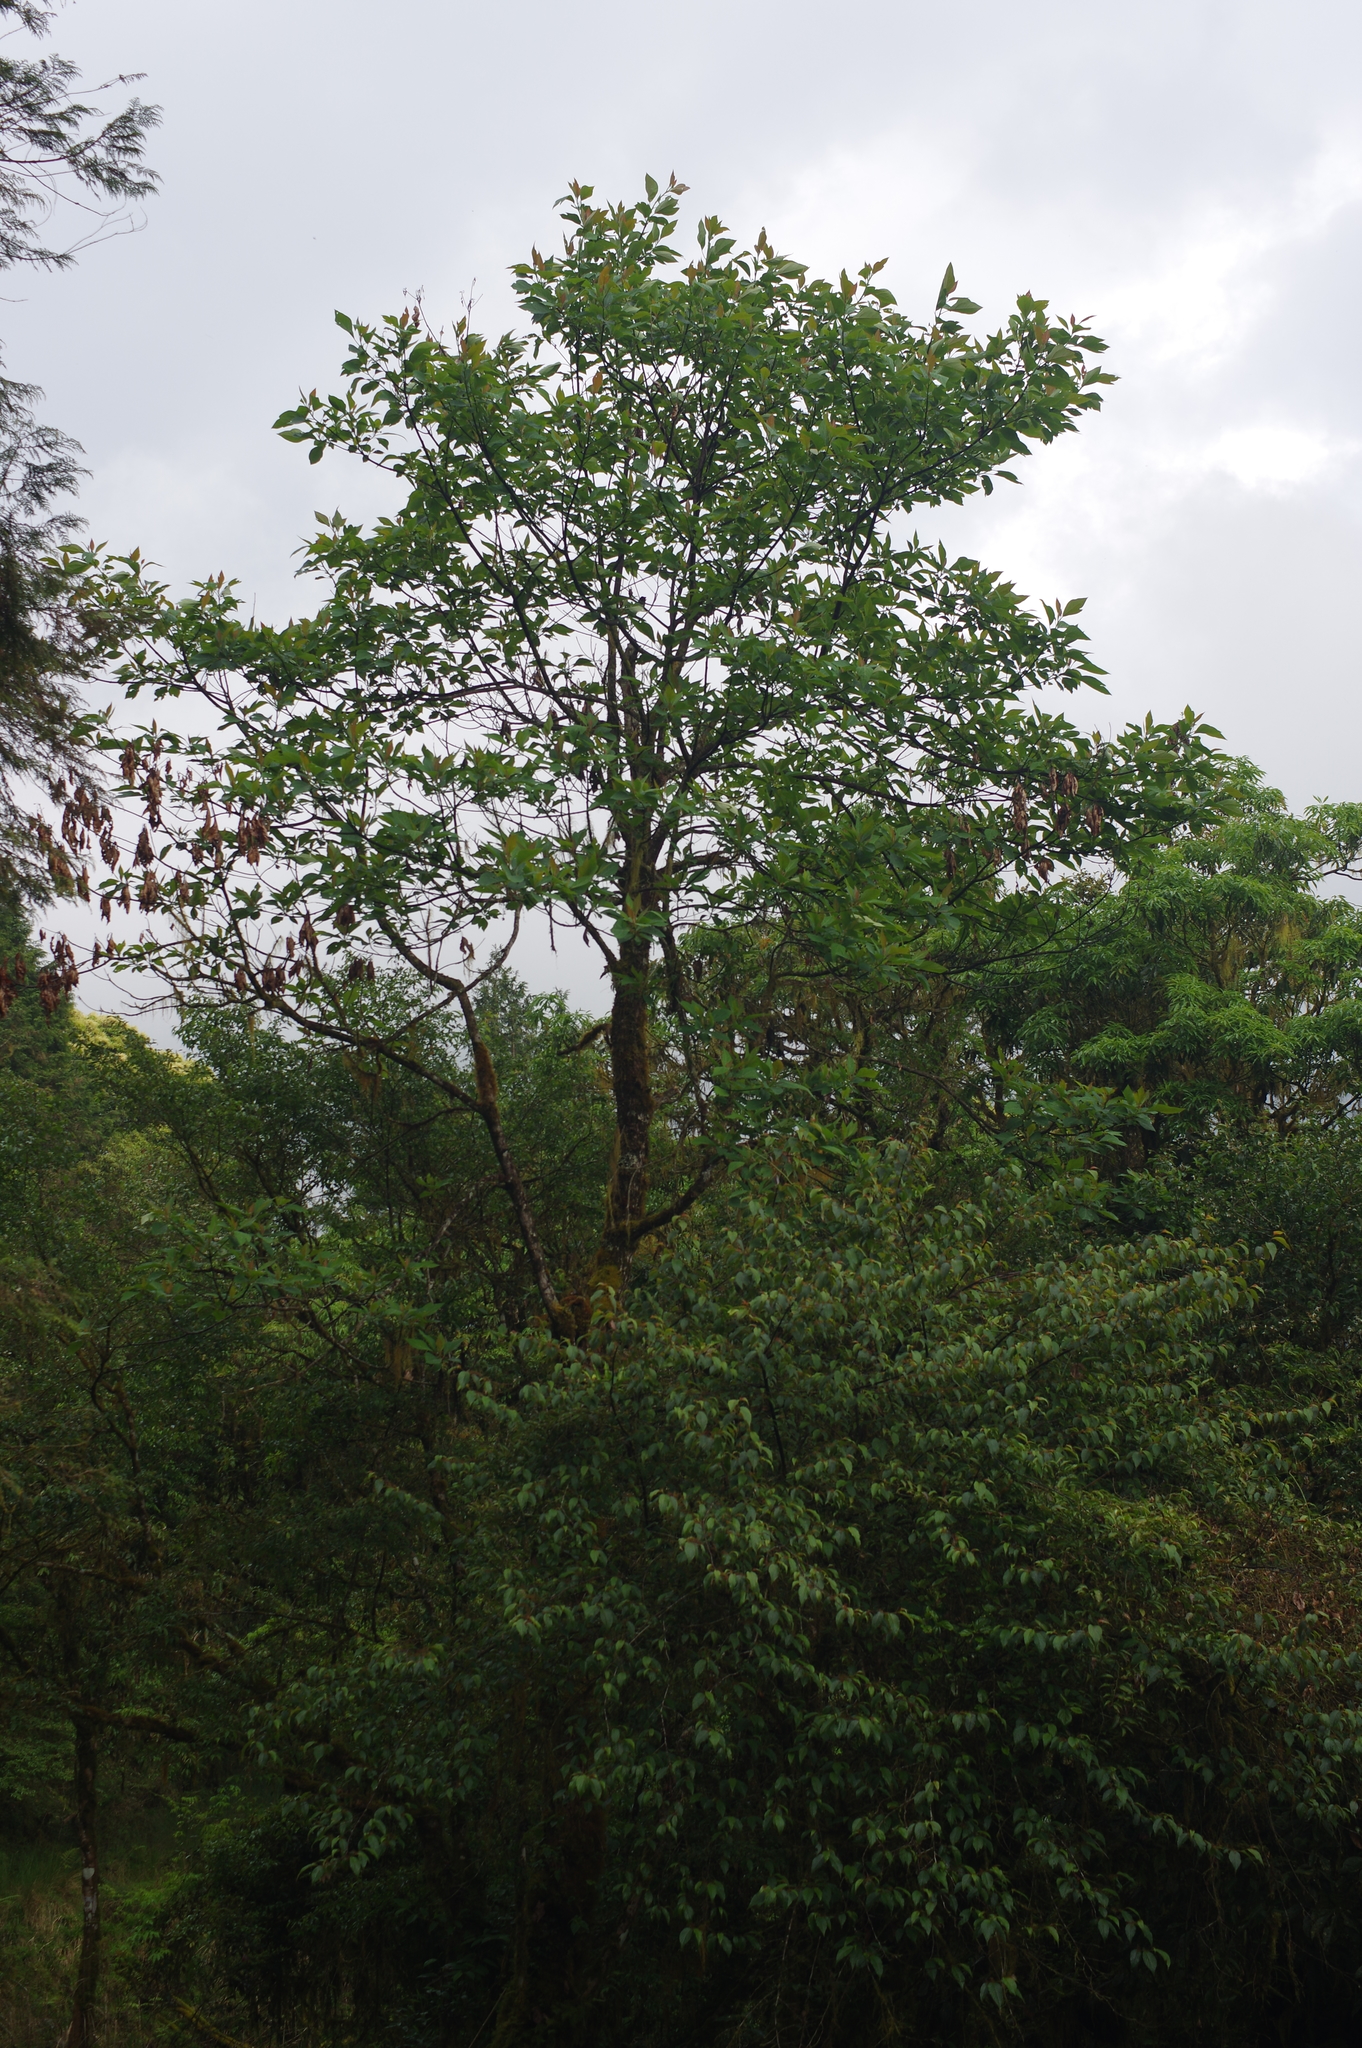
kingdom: Plantae
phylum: Tracheophyta
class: Magnoliopsida
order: Laurales
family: Lauraceae
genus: Sassafras
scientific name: Sassafras randaiense
